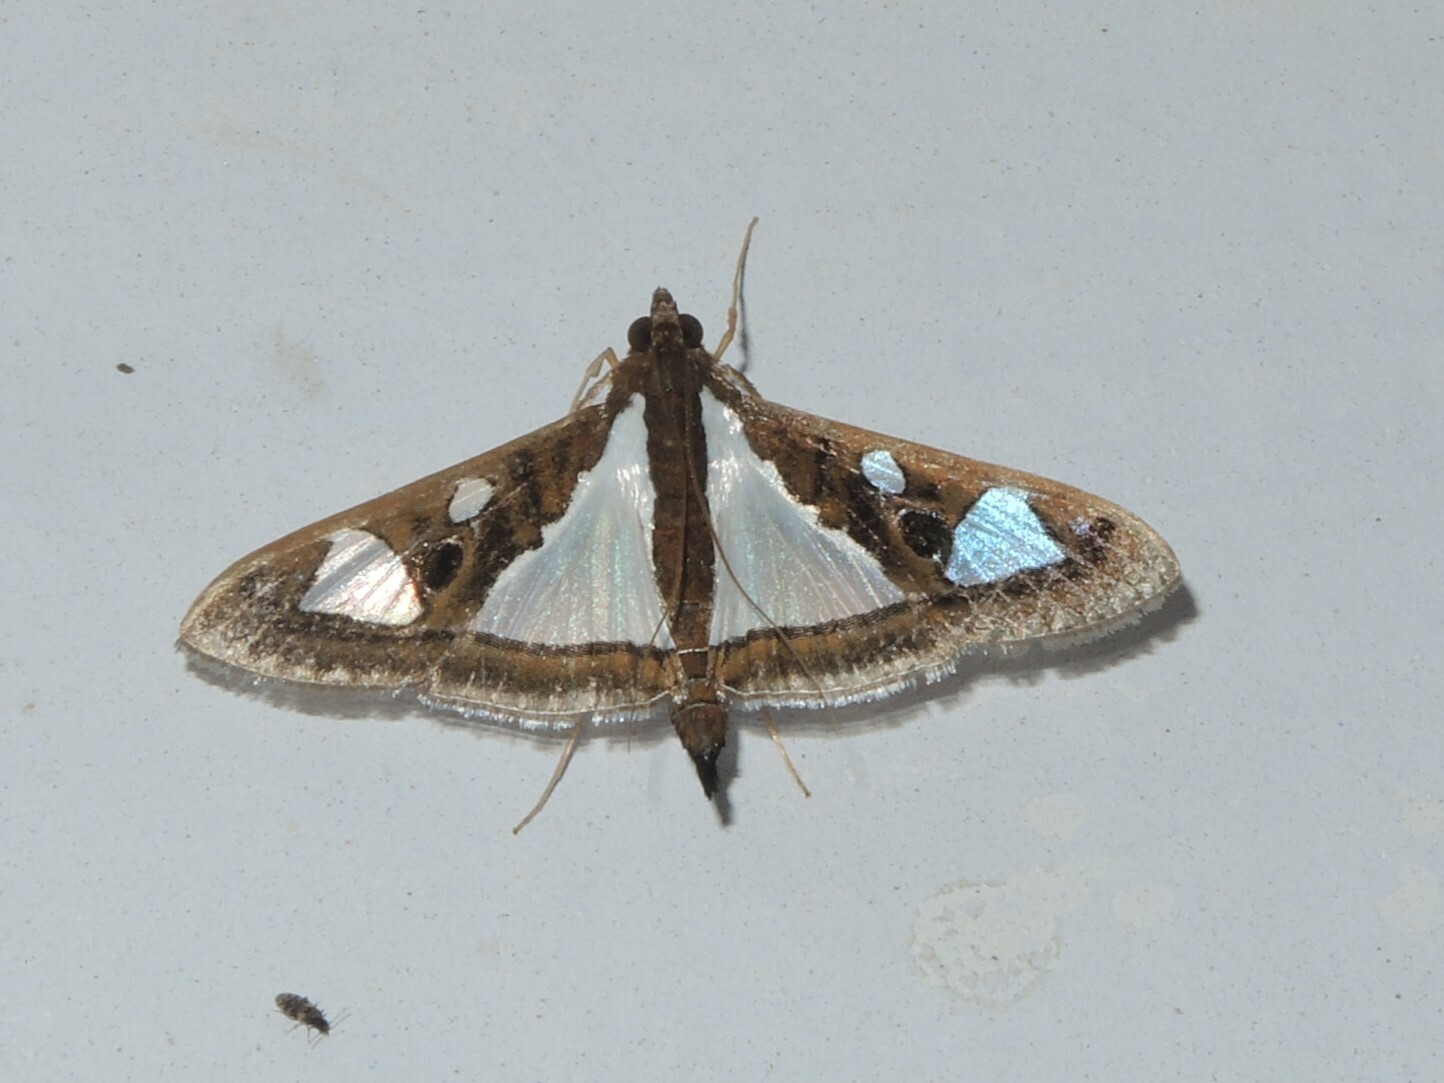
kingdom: Animalia
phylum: Arthropoda
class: Insecta
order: Lepidoptera
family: Crambidae
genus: Glyphodes
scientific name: Glyphodes bivitralis
